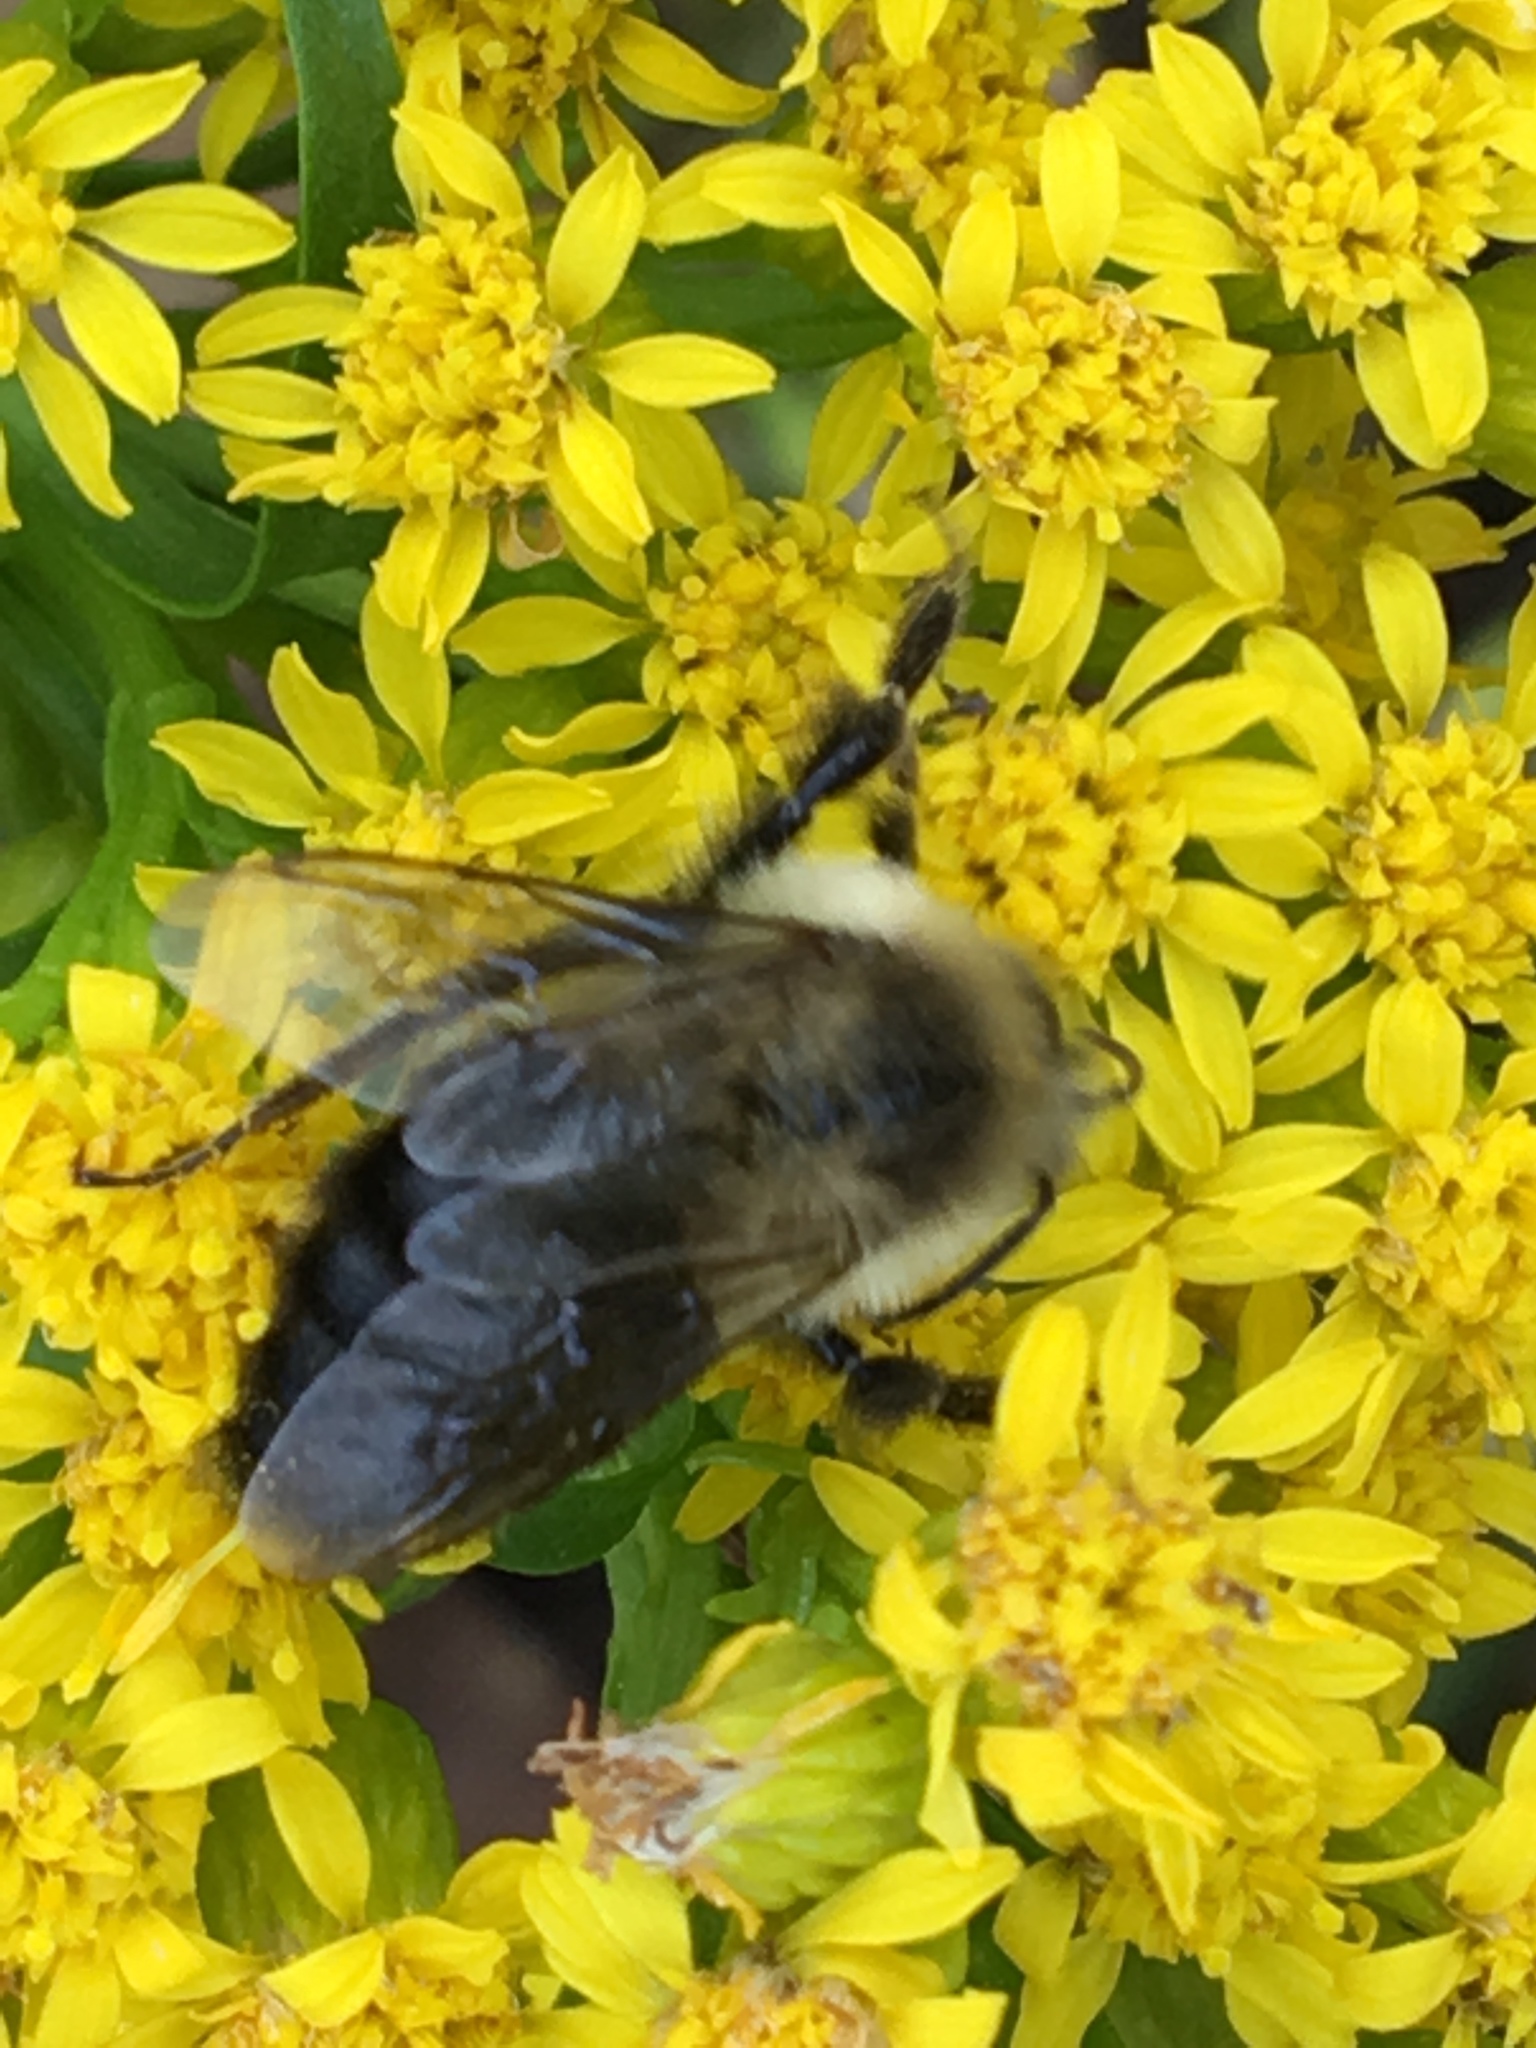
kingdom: Animalia
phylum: Arthropoda
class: Insecta
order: Hymenoptera
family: Apidae
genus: Bombus
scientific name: Bombus impatiens
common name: Common eastern bumble bee
